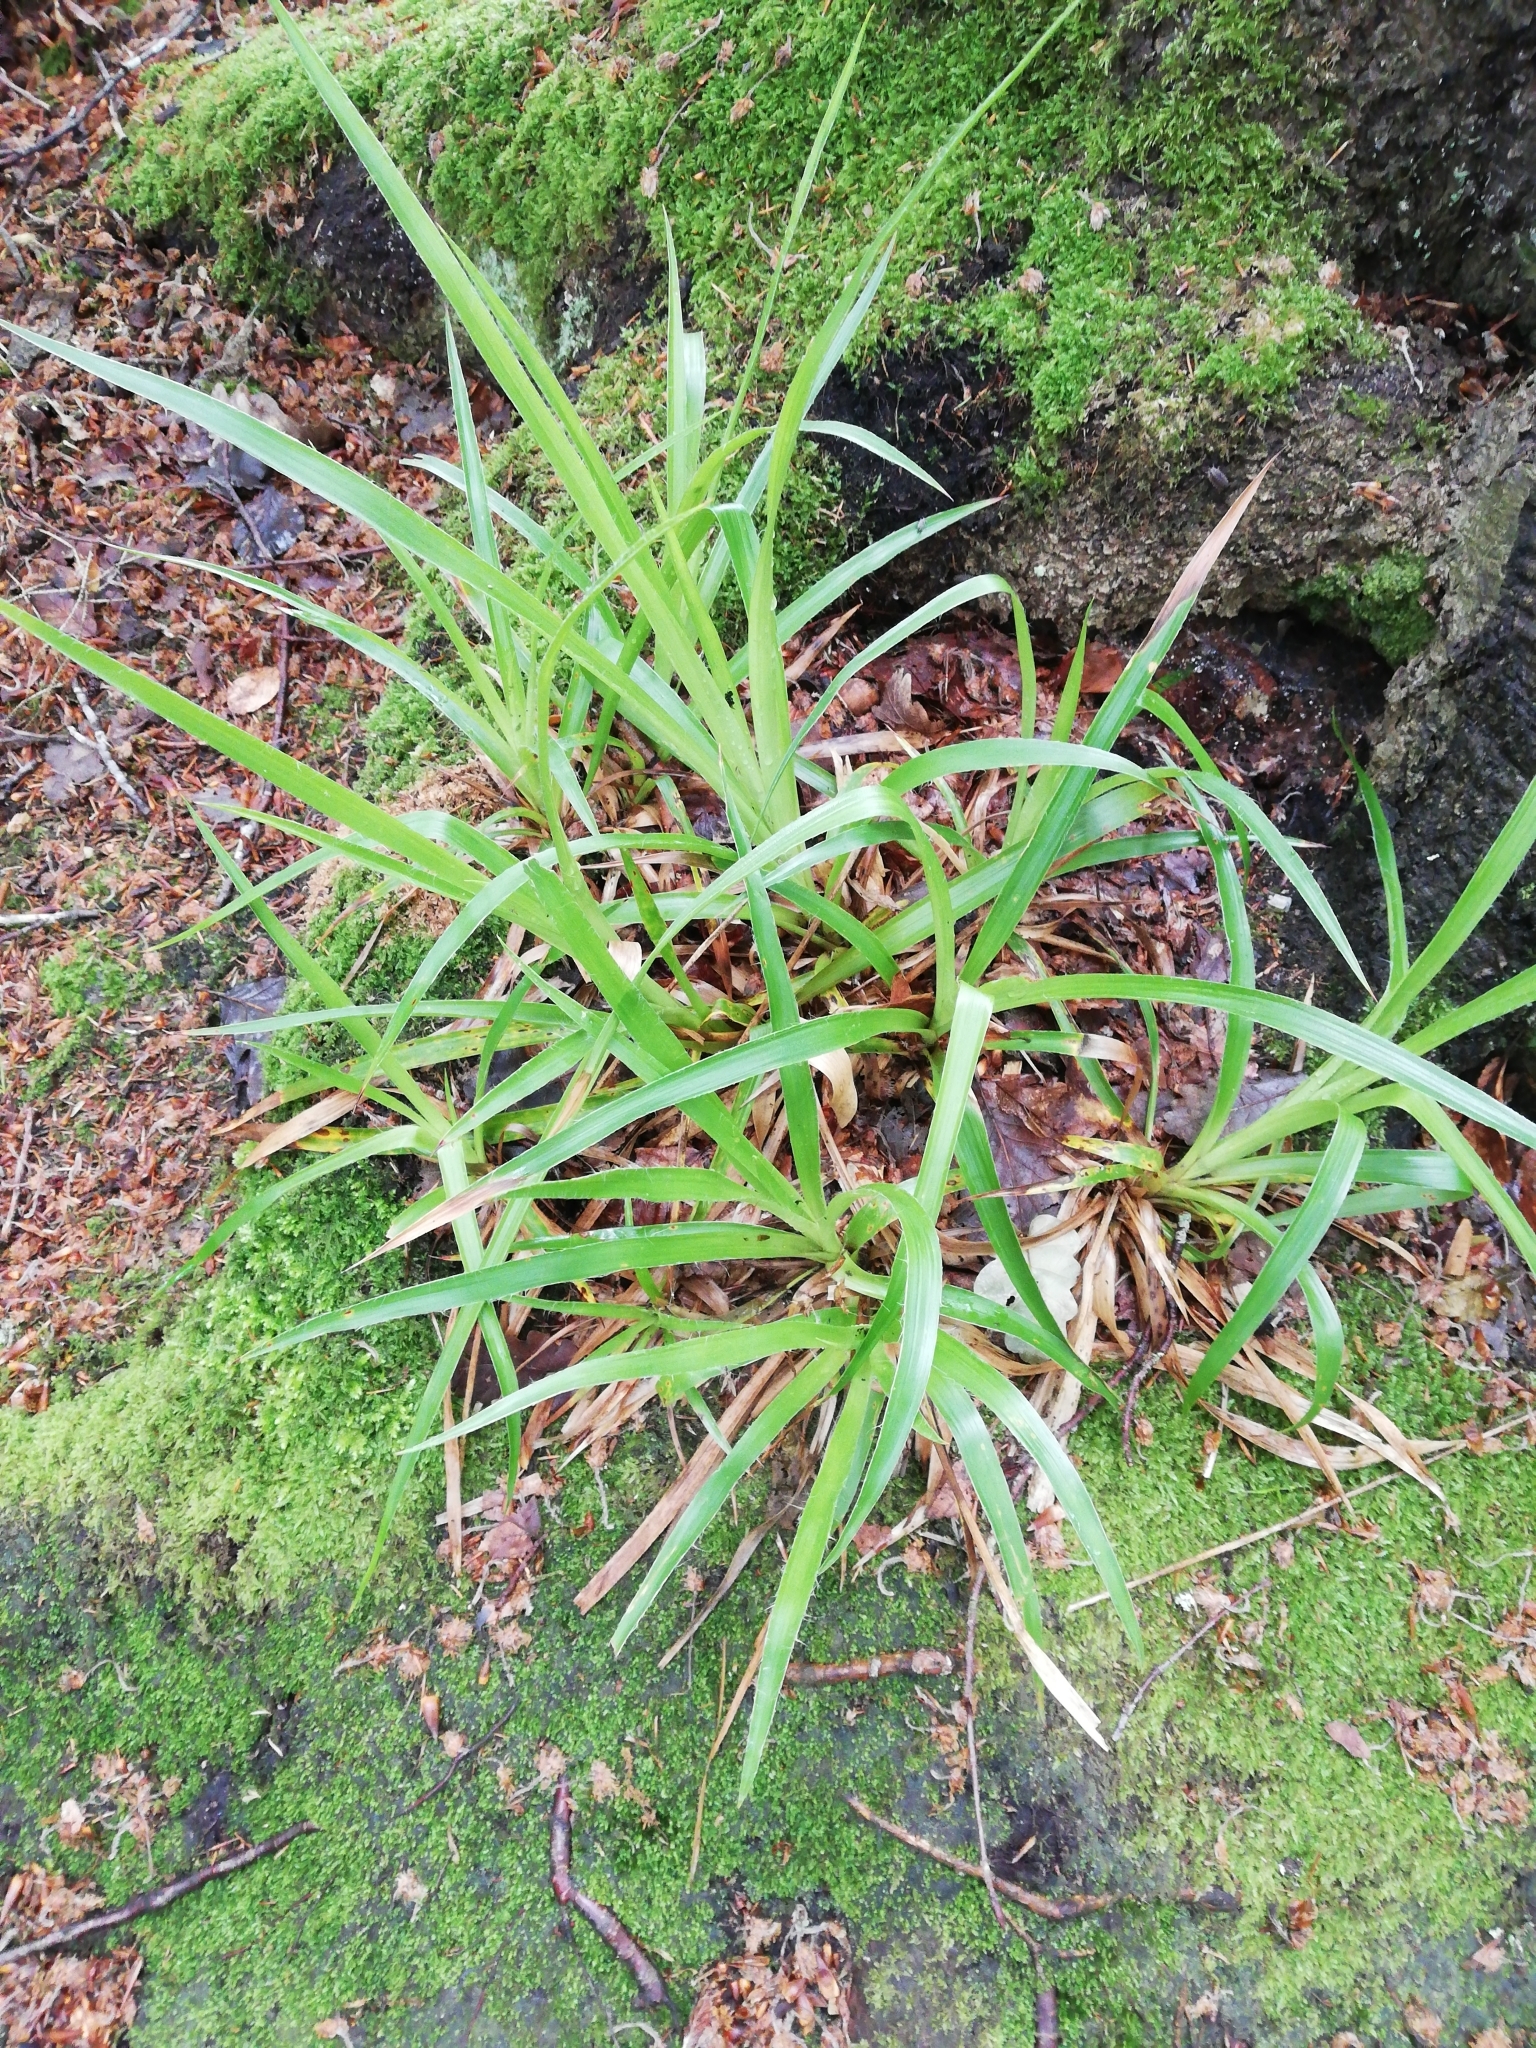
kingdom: Plantae
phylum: Tracheophyta
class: Liliopsida
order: Poales
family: Juncaceae
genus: Luzula
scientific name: Luzula sylvatica
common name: Great wood-rush
